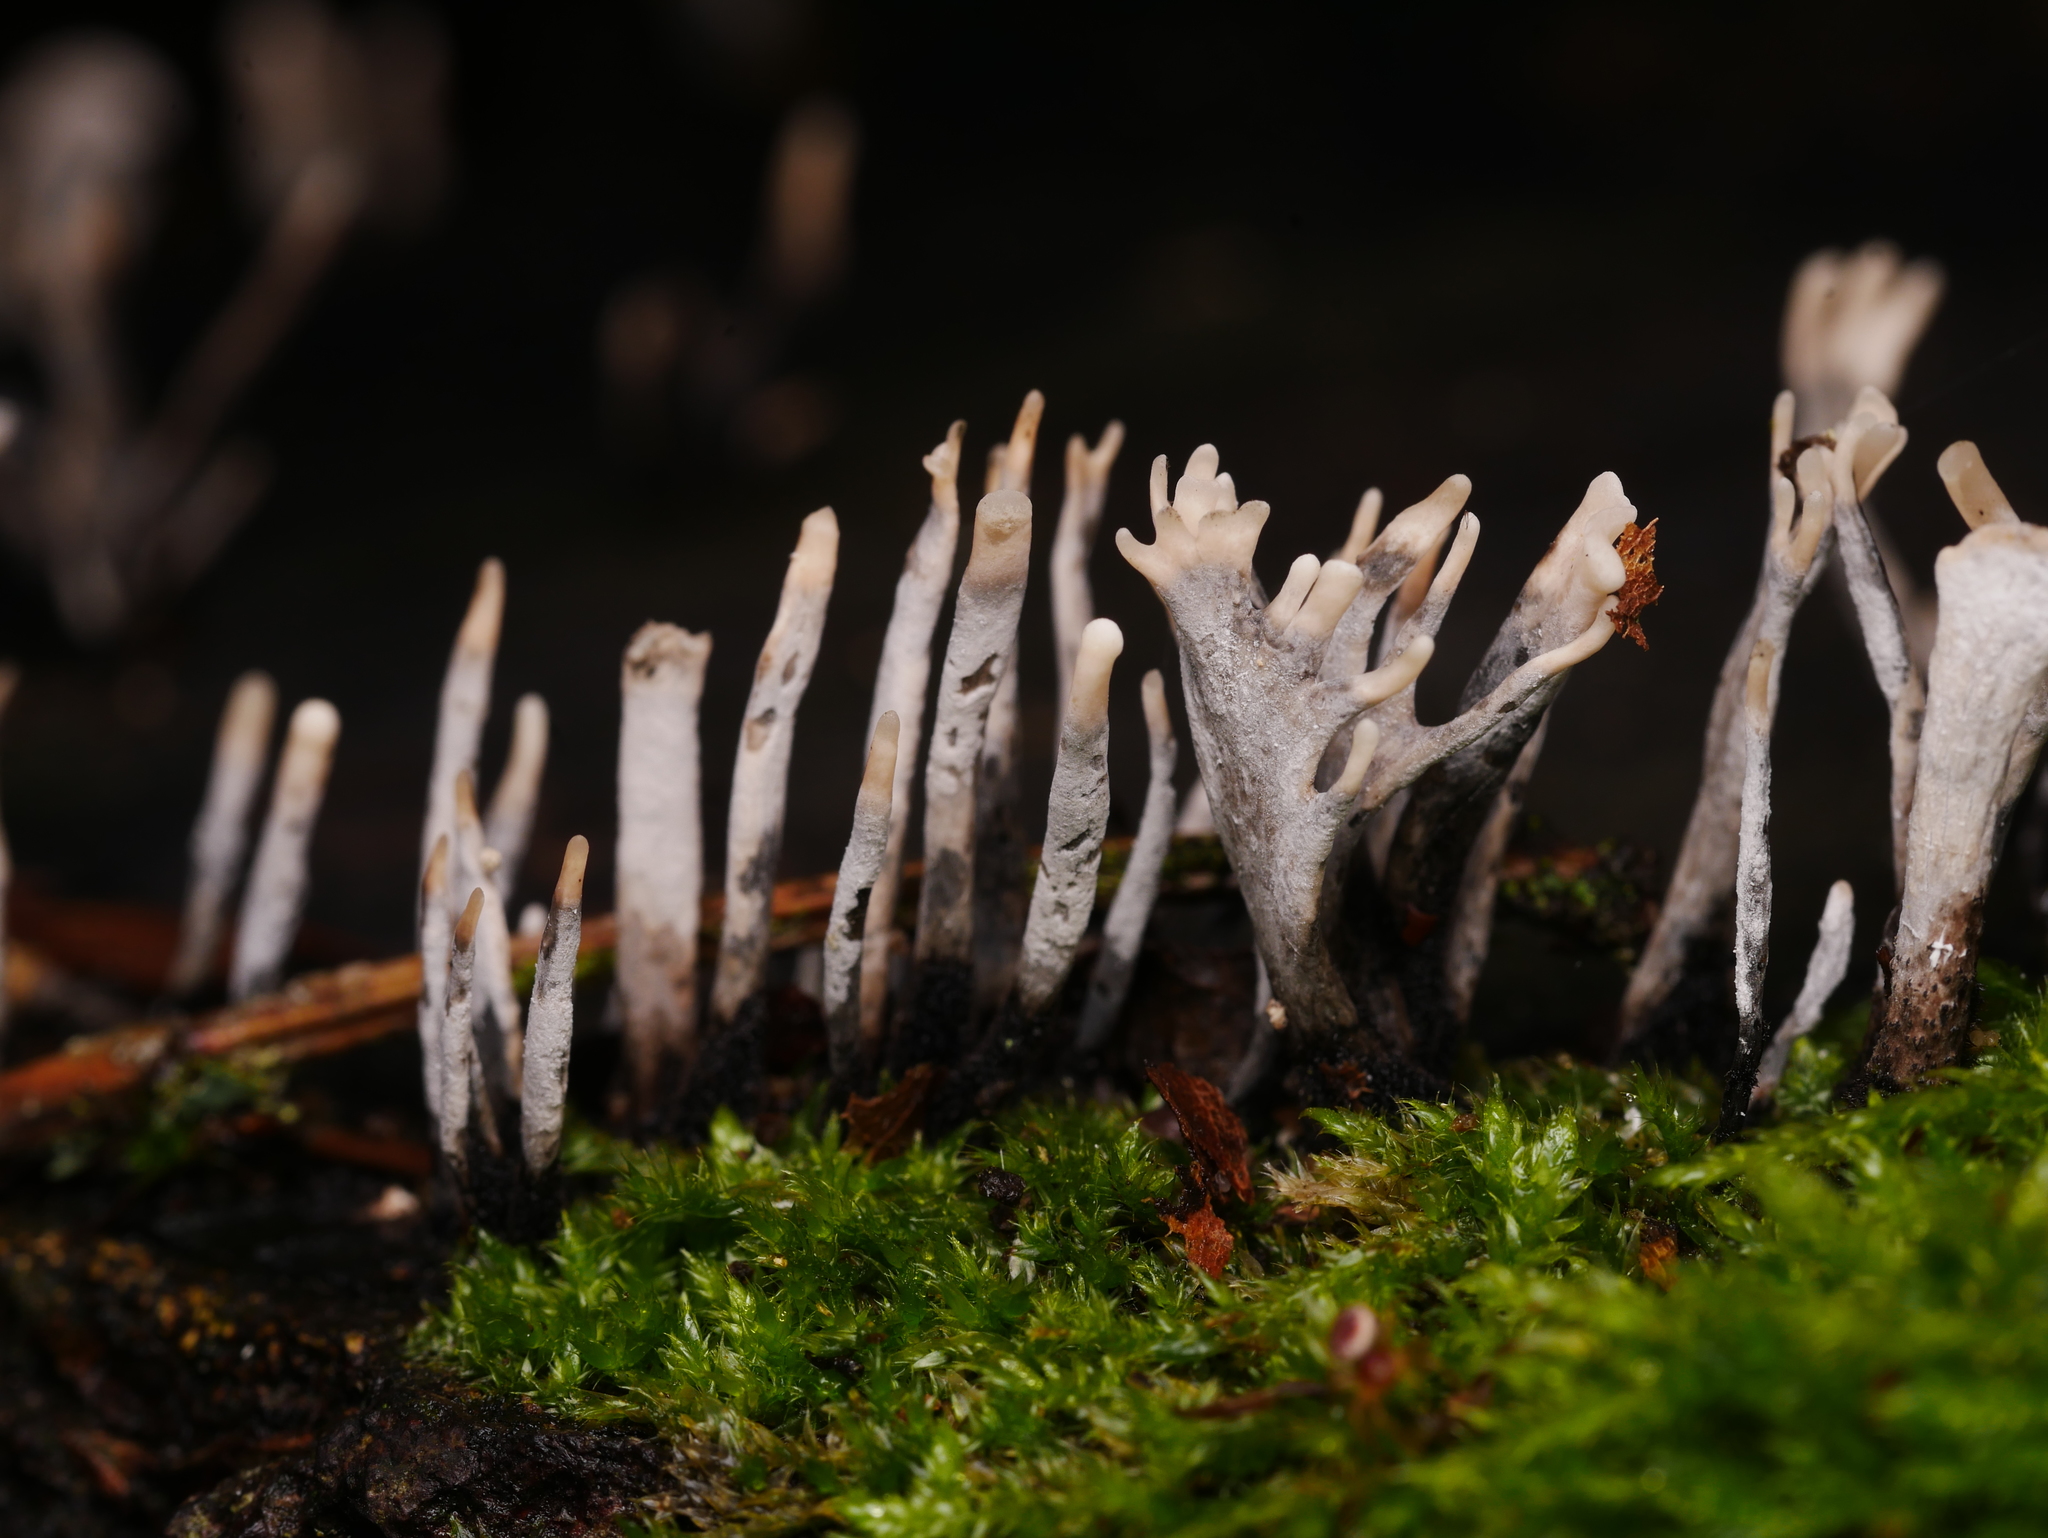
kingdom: Fungi
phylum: Ascomycota
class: Sordariomycetes
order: Xylariales
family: Xylariaceae
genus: Xylaria
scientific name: Xylaria hypoxylon
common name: Candle-snuff fungus
